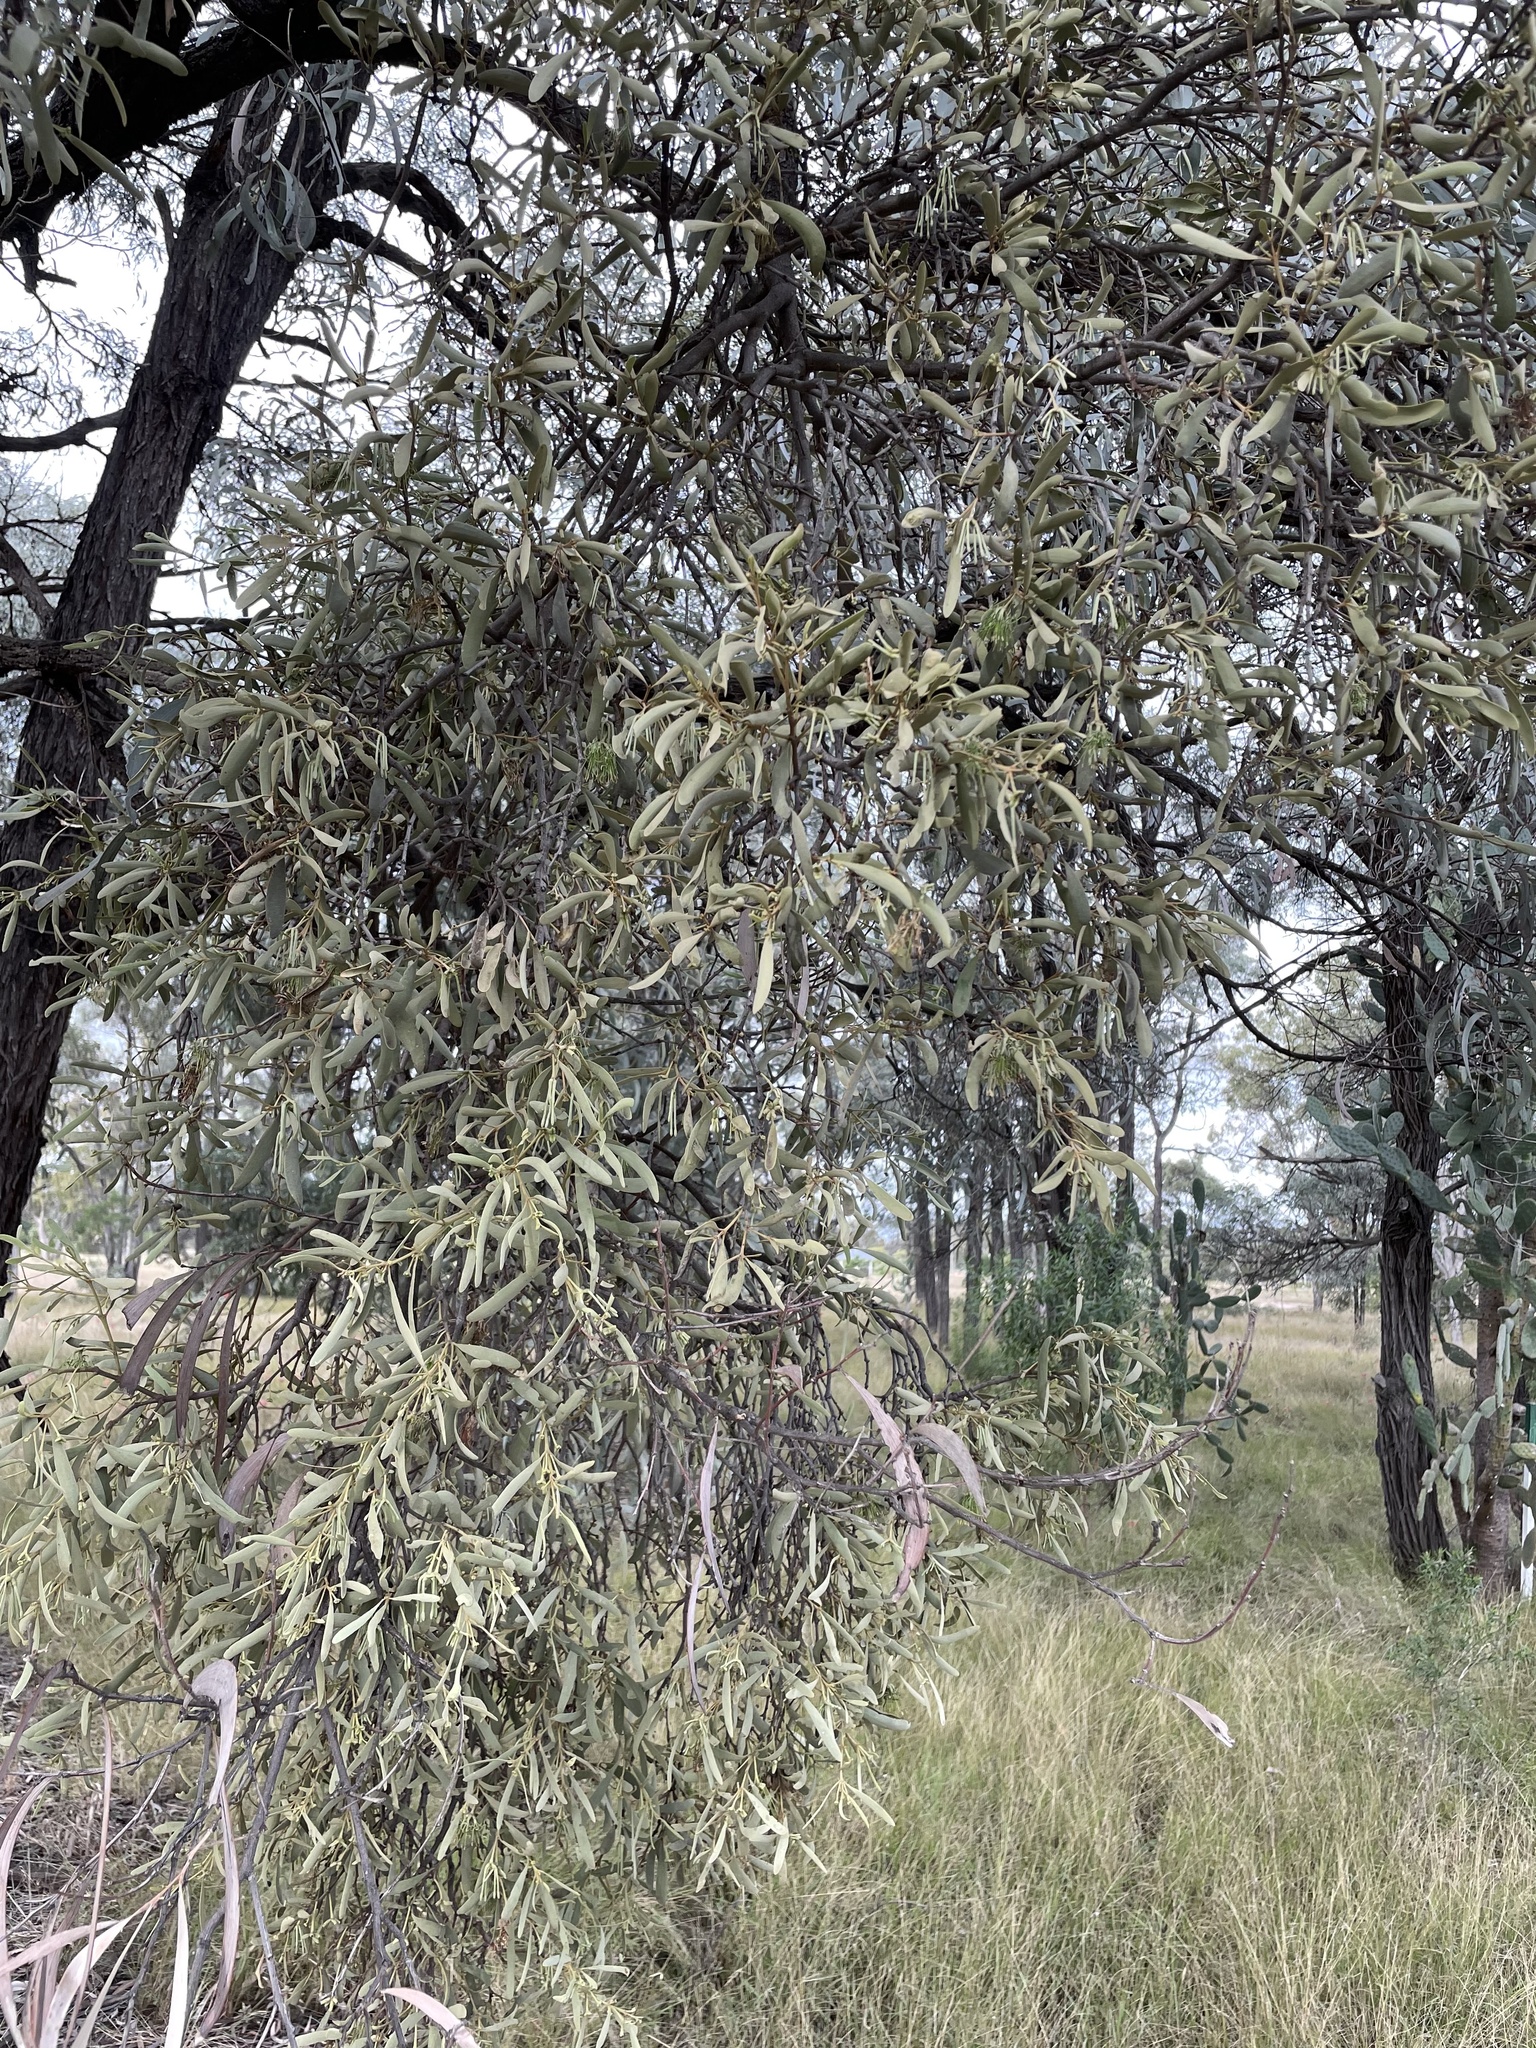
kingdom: Plantae
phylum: Tracheophyta
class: Magnoliopsida
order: Santalales
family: Loranthaceae
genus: Amyema
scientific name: Amyema maidenii
